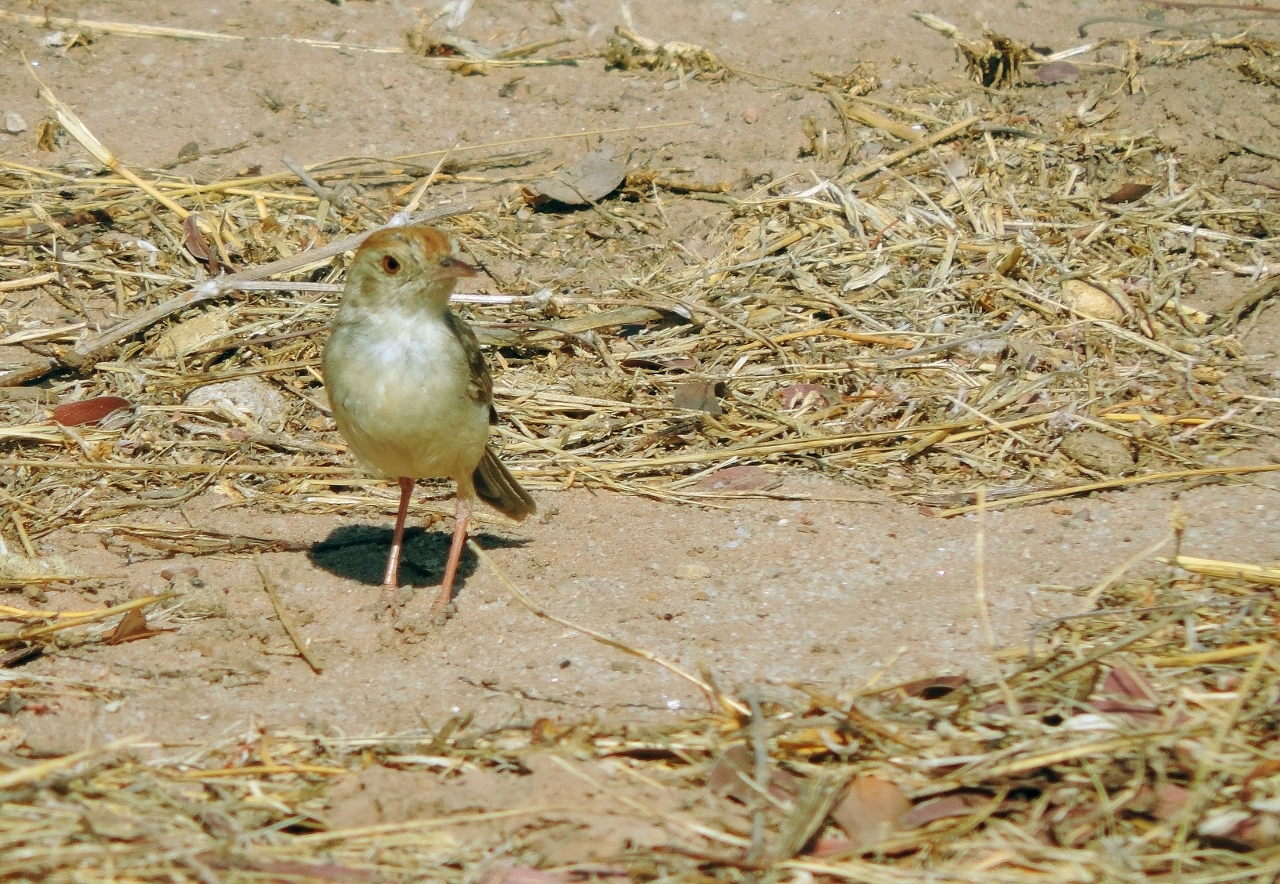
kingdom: Animalia
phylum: Chordata
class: Aves
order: Passeriformes
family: Cisticolidae
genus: Cisticola
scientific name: Cisticola fulvicapilla
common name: Neddicky
